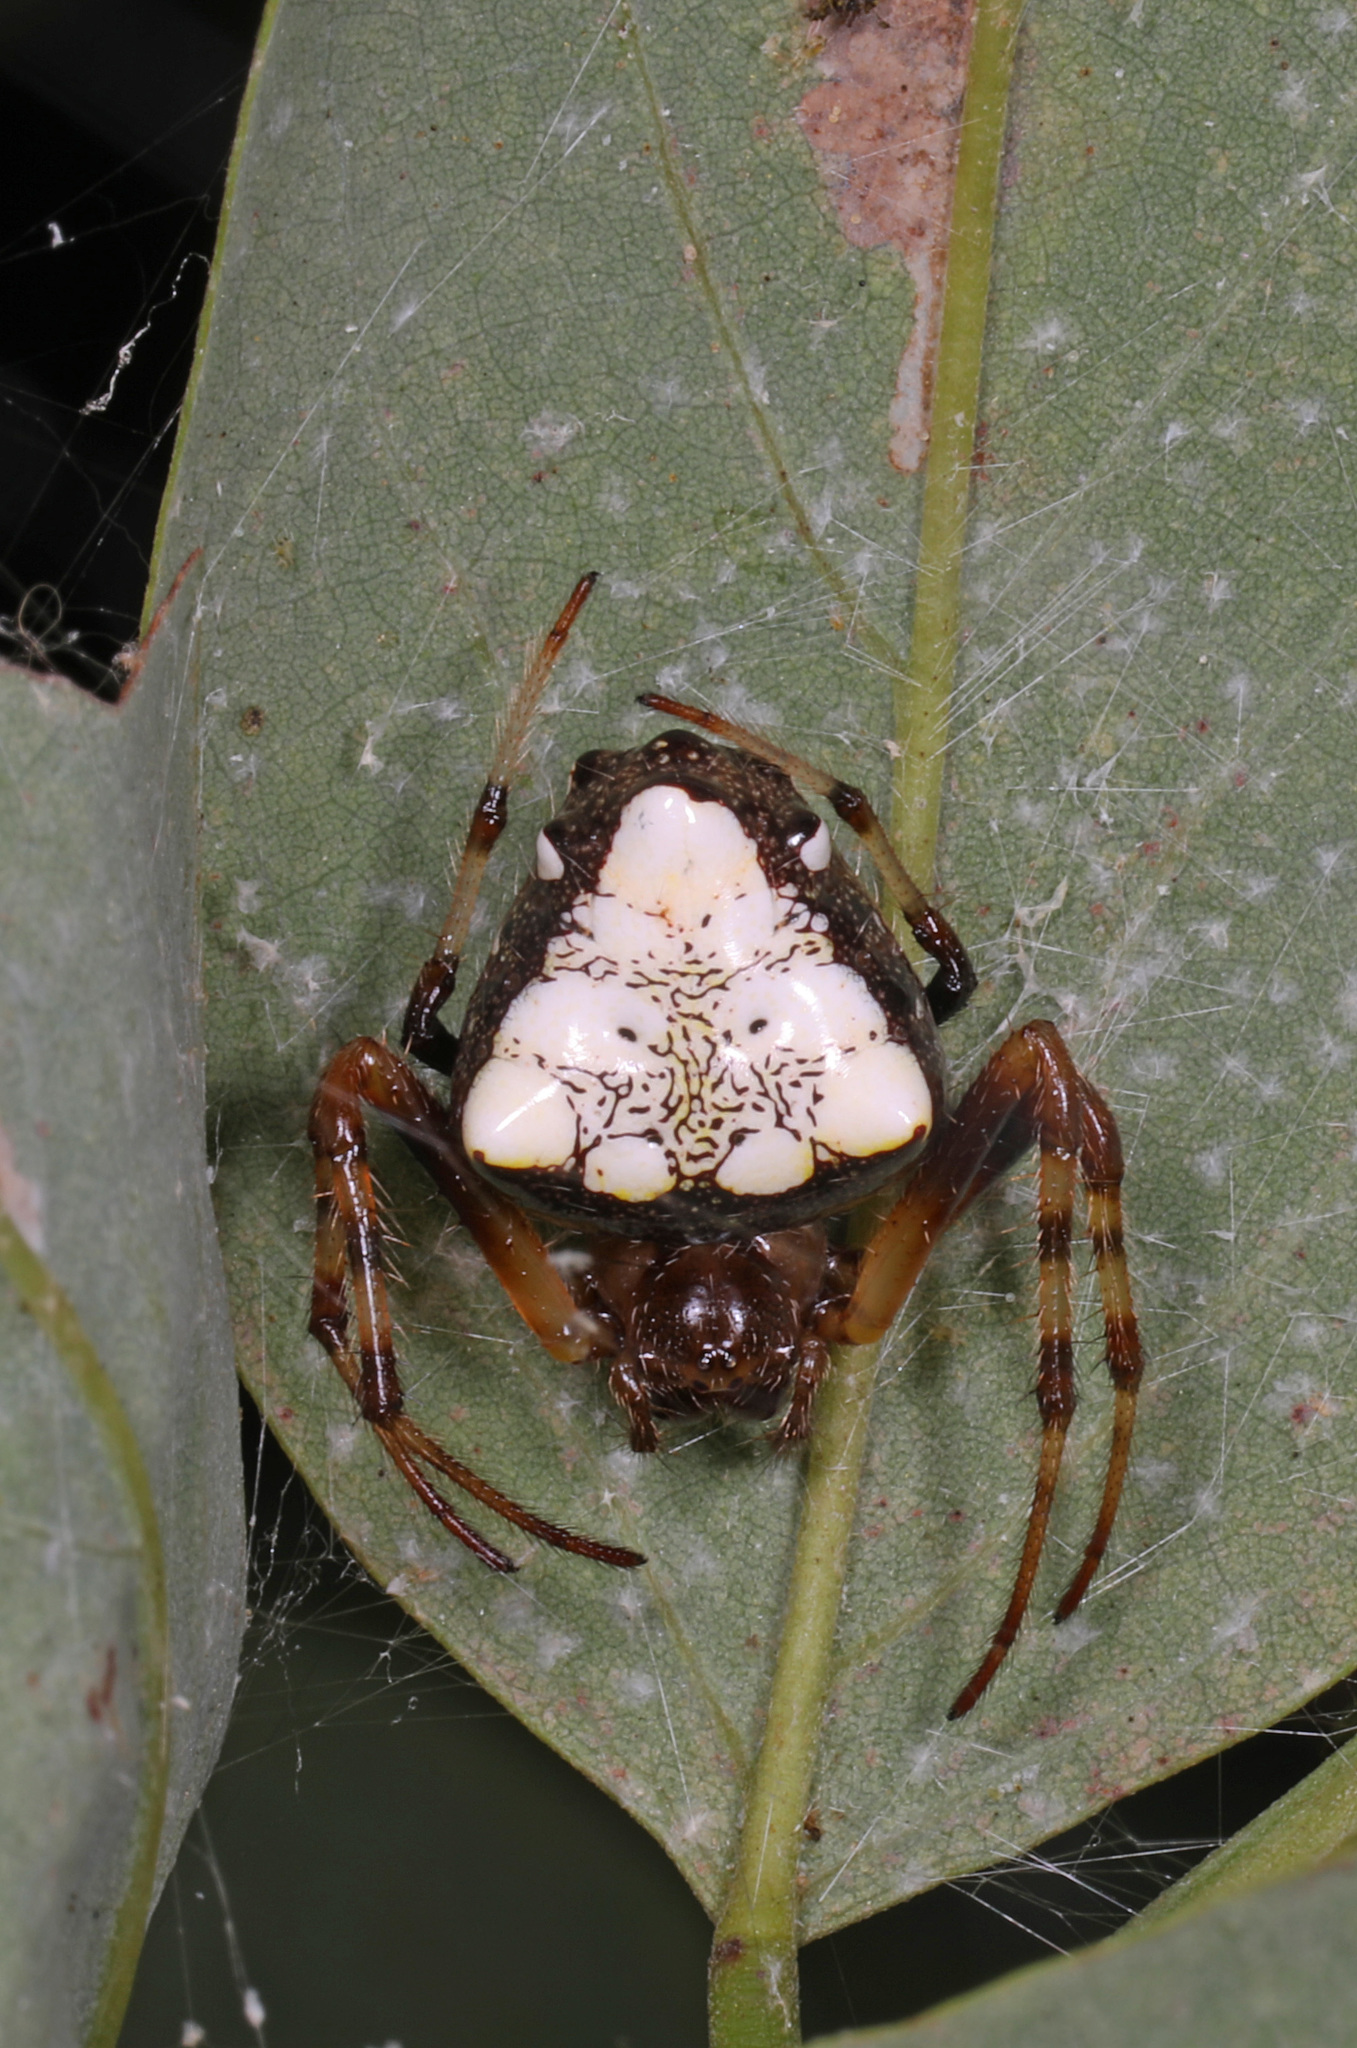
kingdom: Animalia
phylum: Arthropoda
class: Arachnida
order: Araneae
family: Araneidae
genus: Verrucosa
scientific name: Verrucosa arenata
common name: Orb weavers
